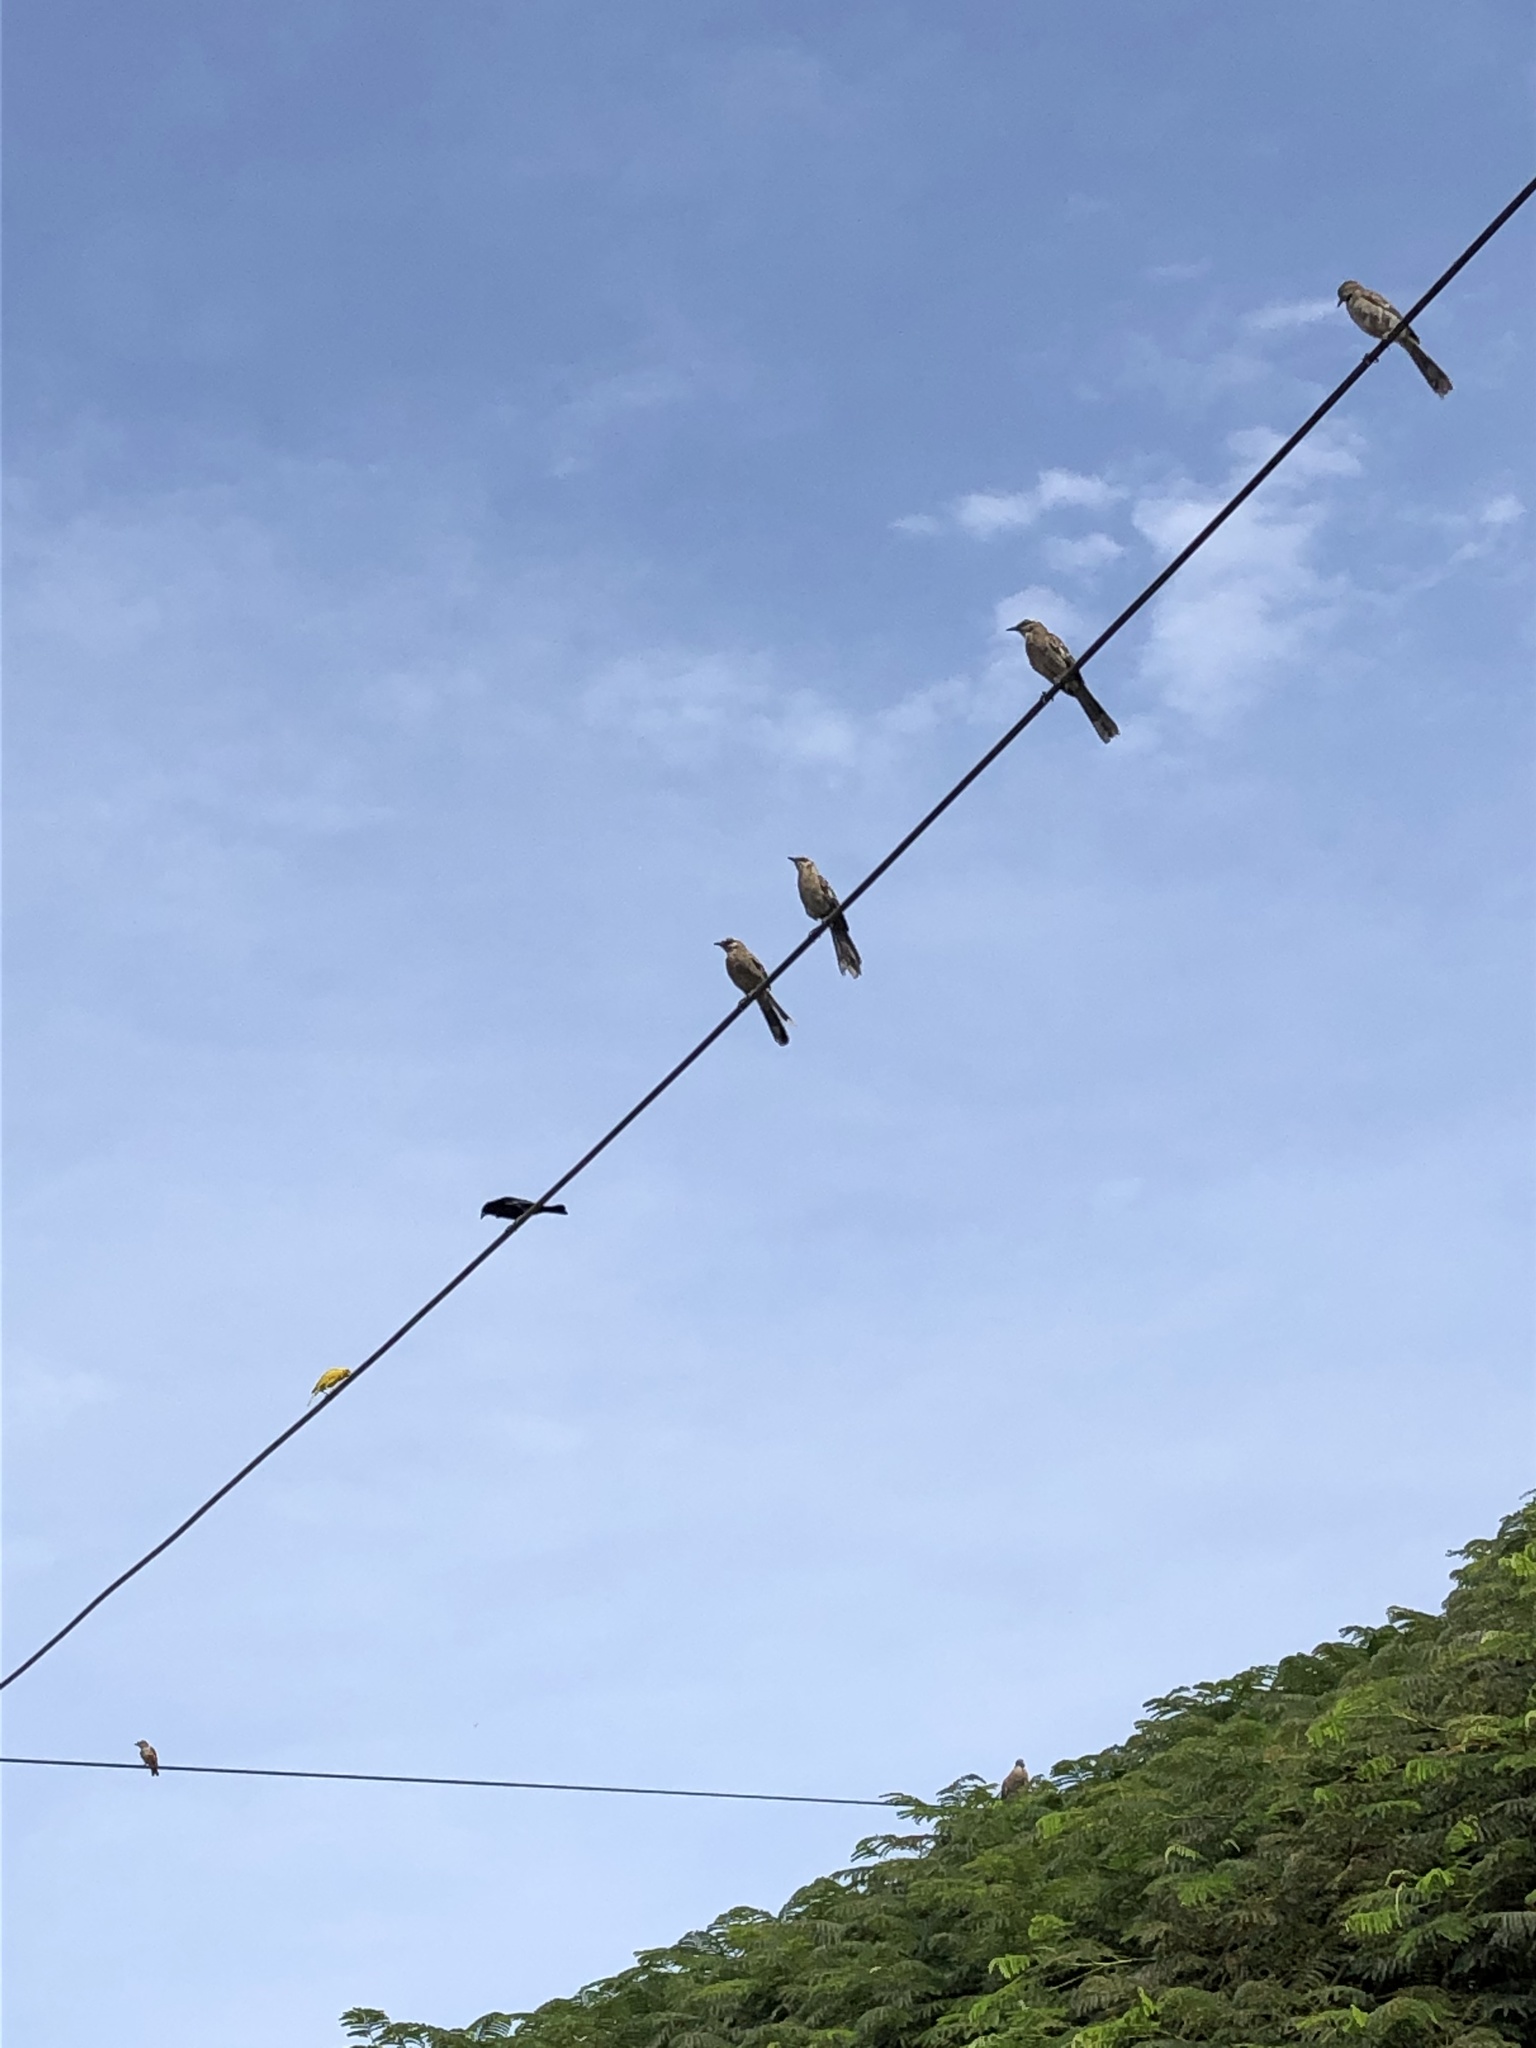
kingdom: Animalia
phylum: Chordata
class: Aves
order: Passeriformes
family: Thraupidae
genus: Sicalis
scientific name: Sicalis flaveola
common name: Saffron finch
